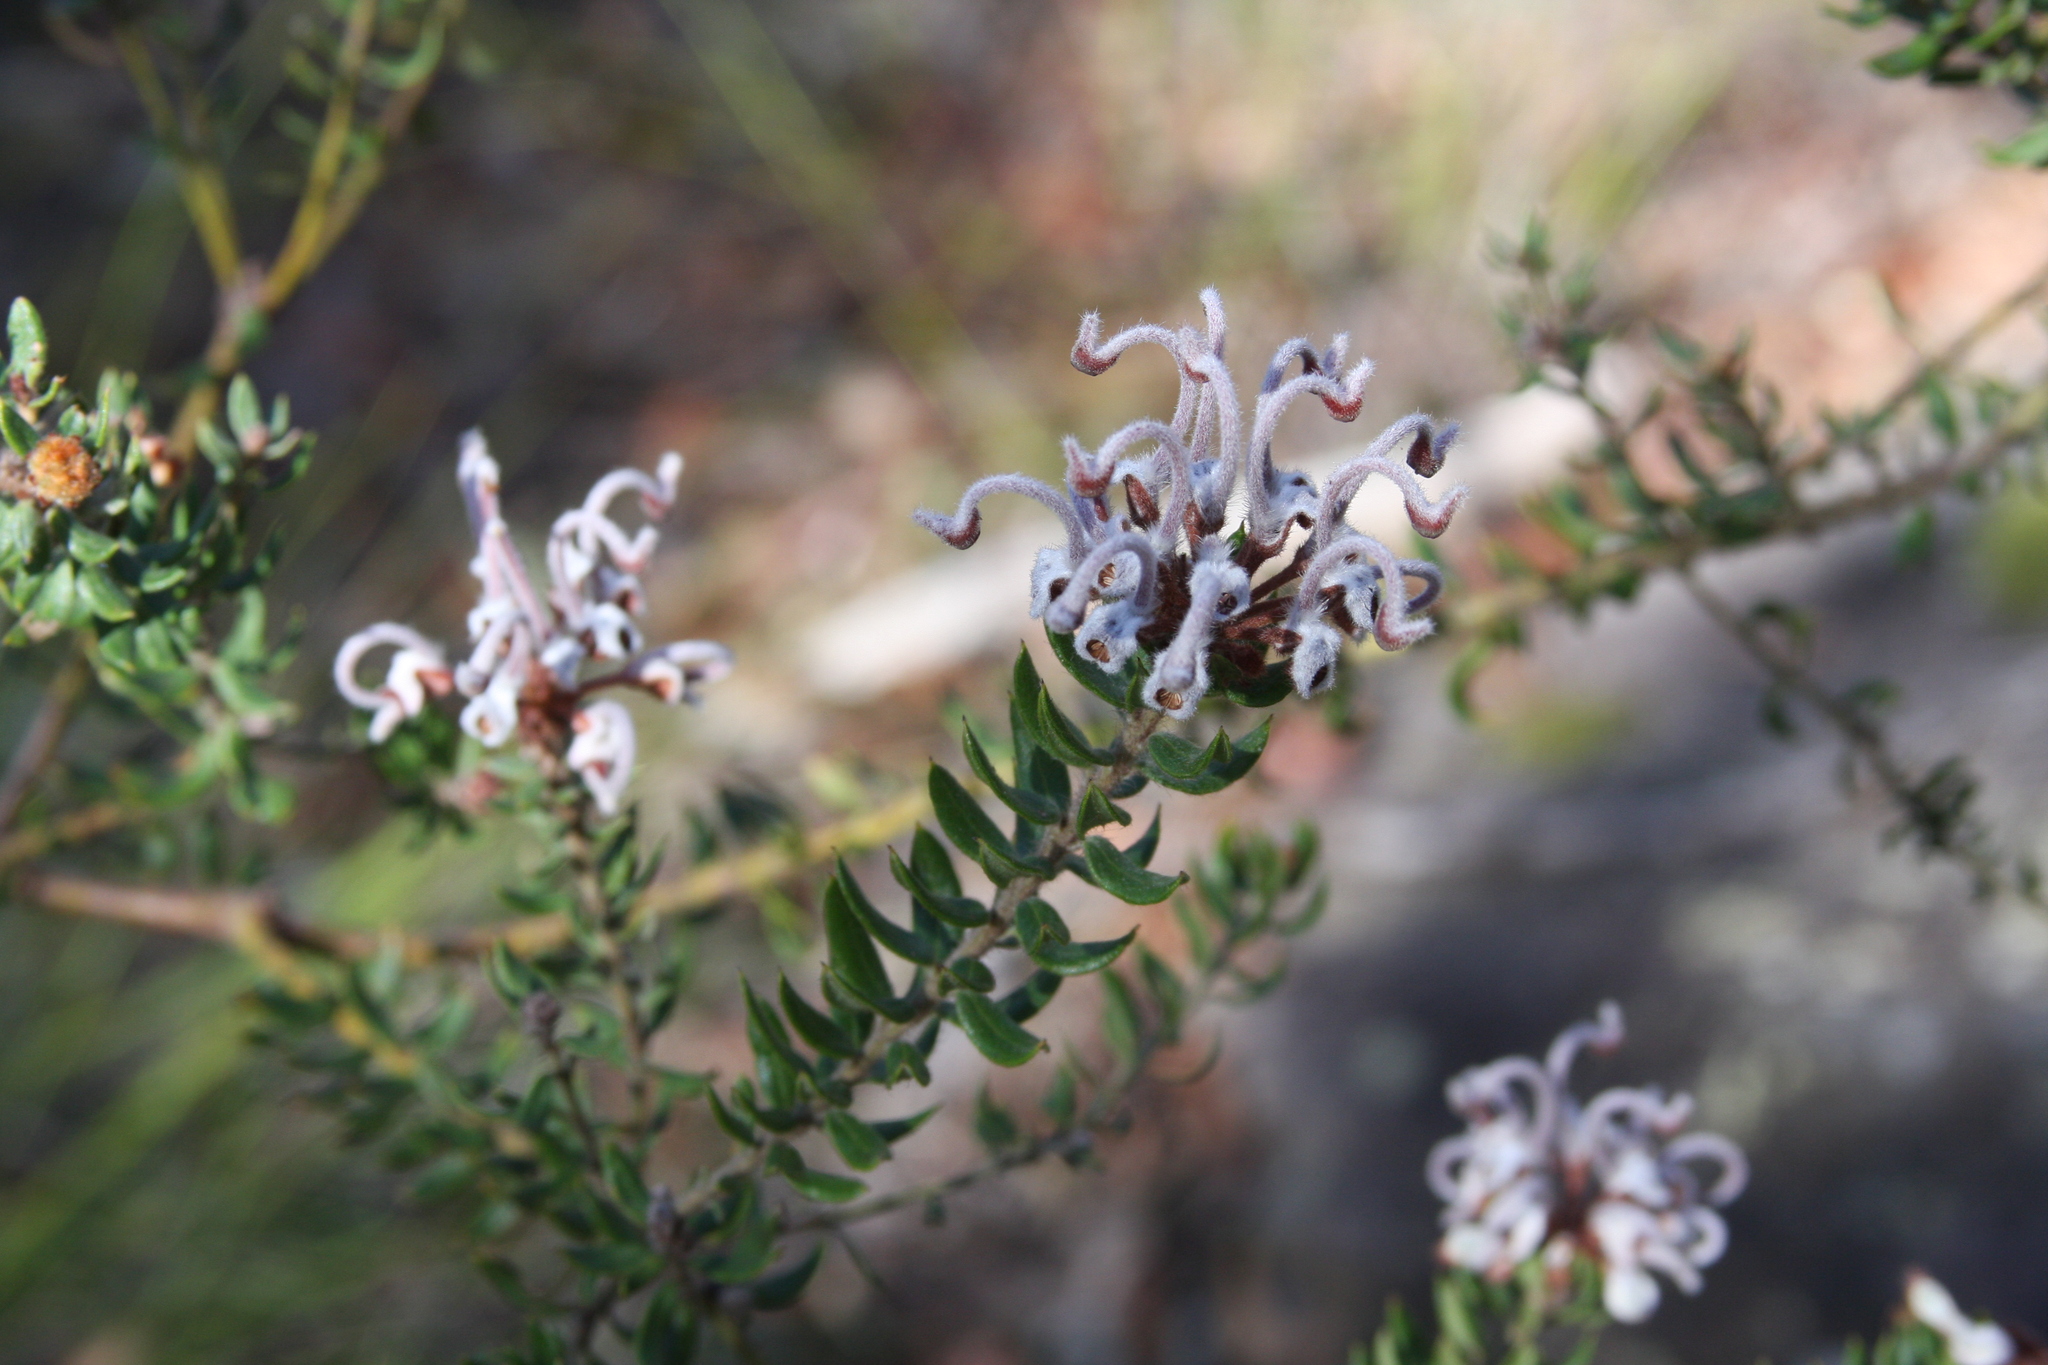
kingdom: Plantae
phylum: Tracheophyta
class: Magnoliopsida
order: Proteales
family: Proteaceae
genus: Grevillea
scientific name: Grevillea buxifolia
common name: Grey spiderflower
